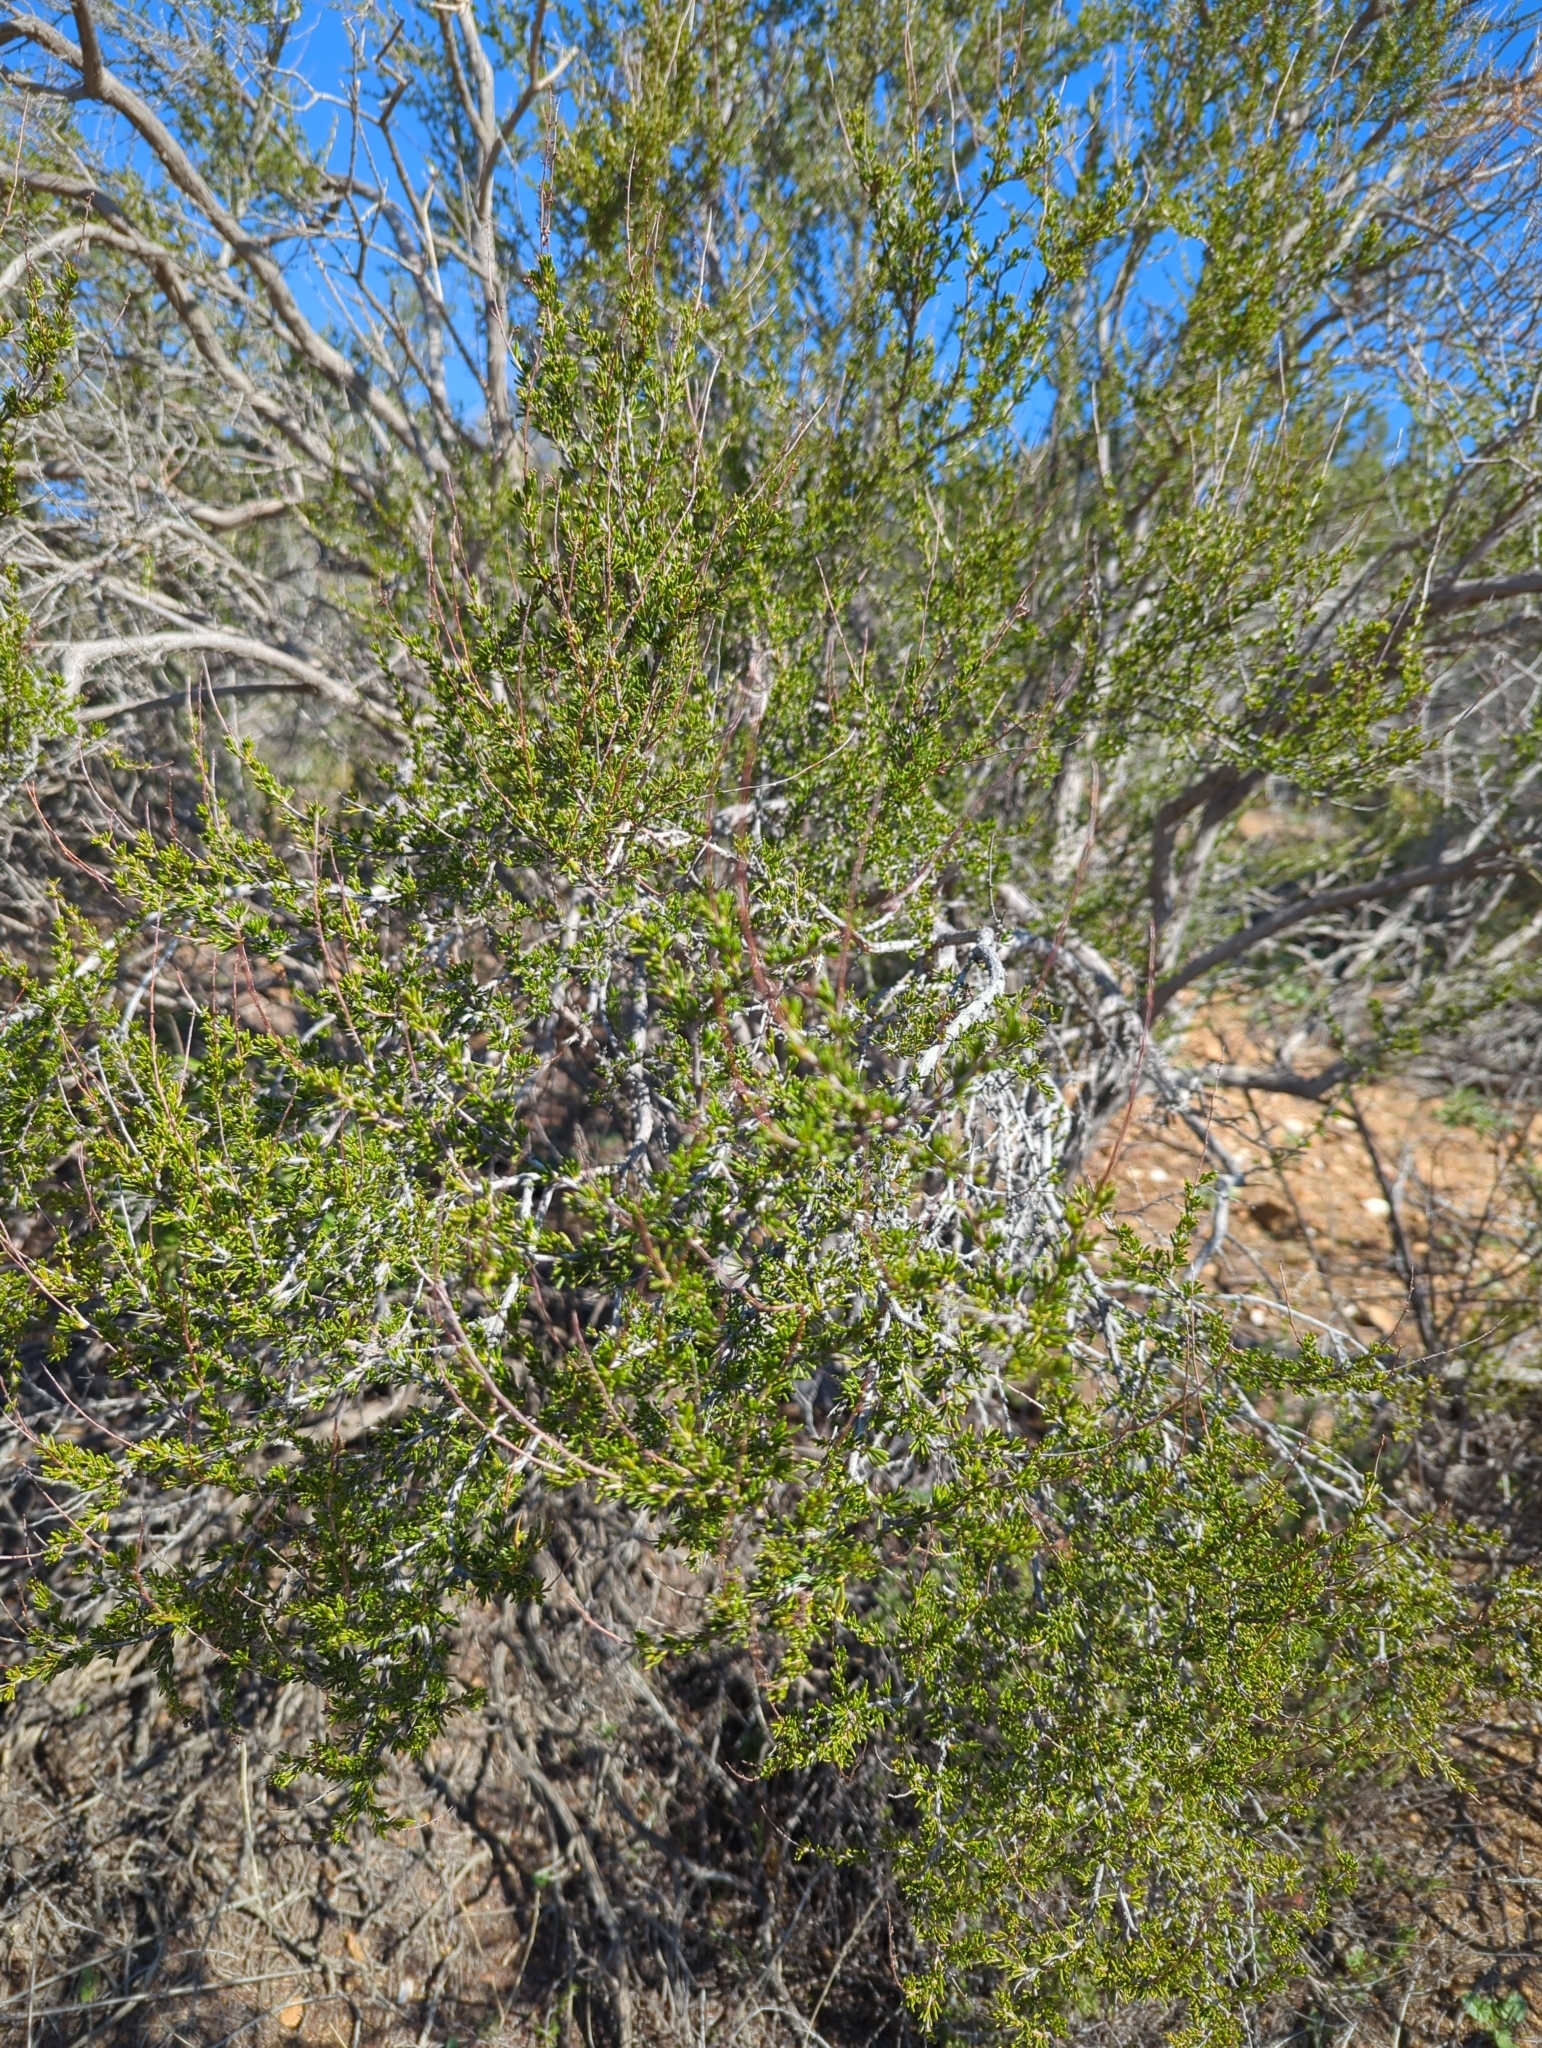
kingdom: Plantae
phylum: Tracheophyta
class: Magnoliopsida
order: Rosales
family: Rosaceae
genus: Adenostoma
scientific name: Adenostoma fasciculatum
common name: Chamise
